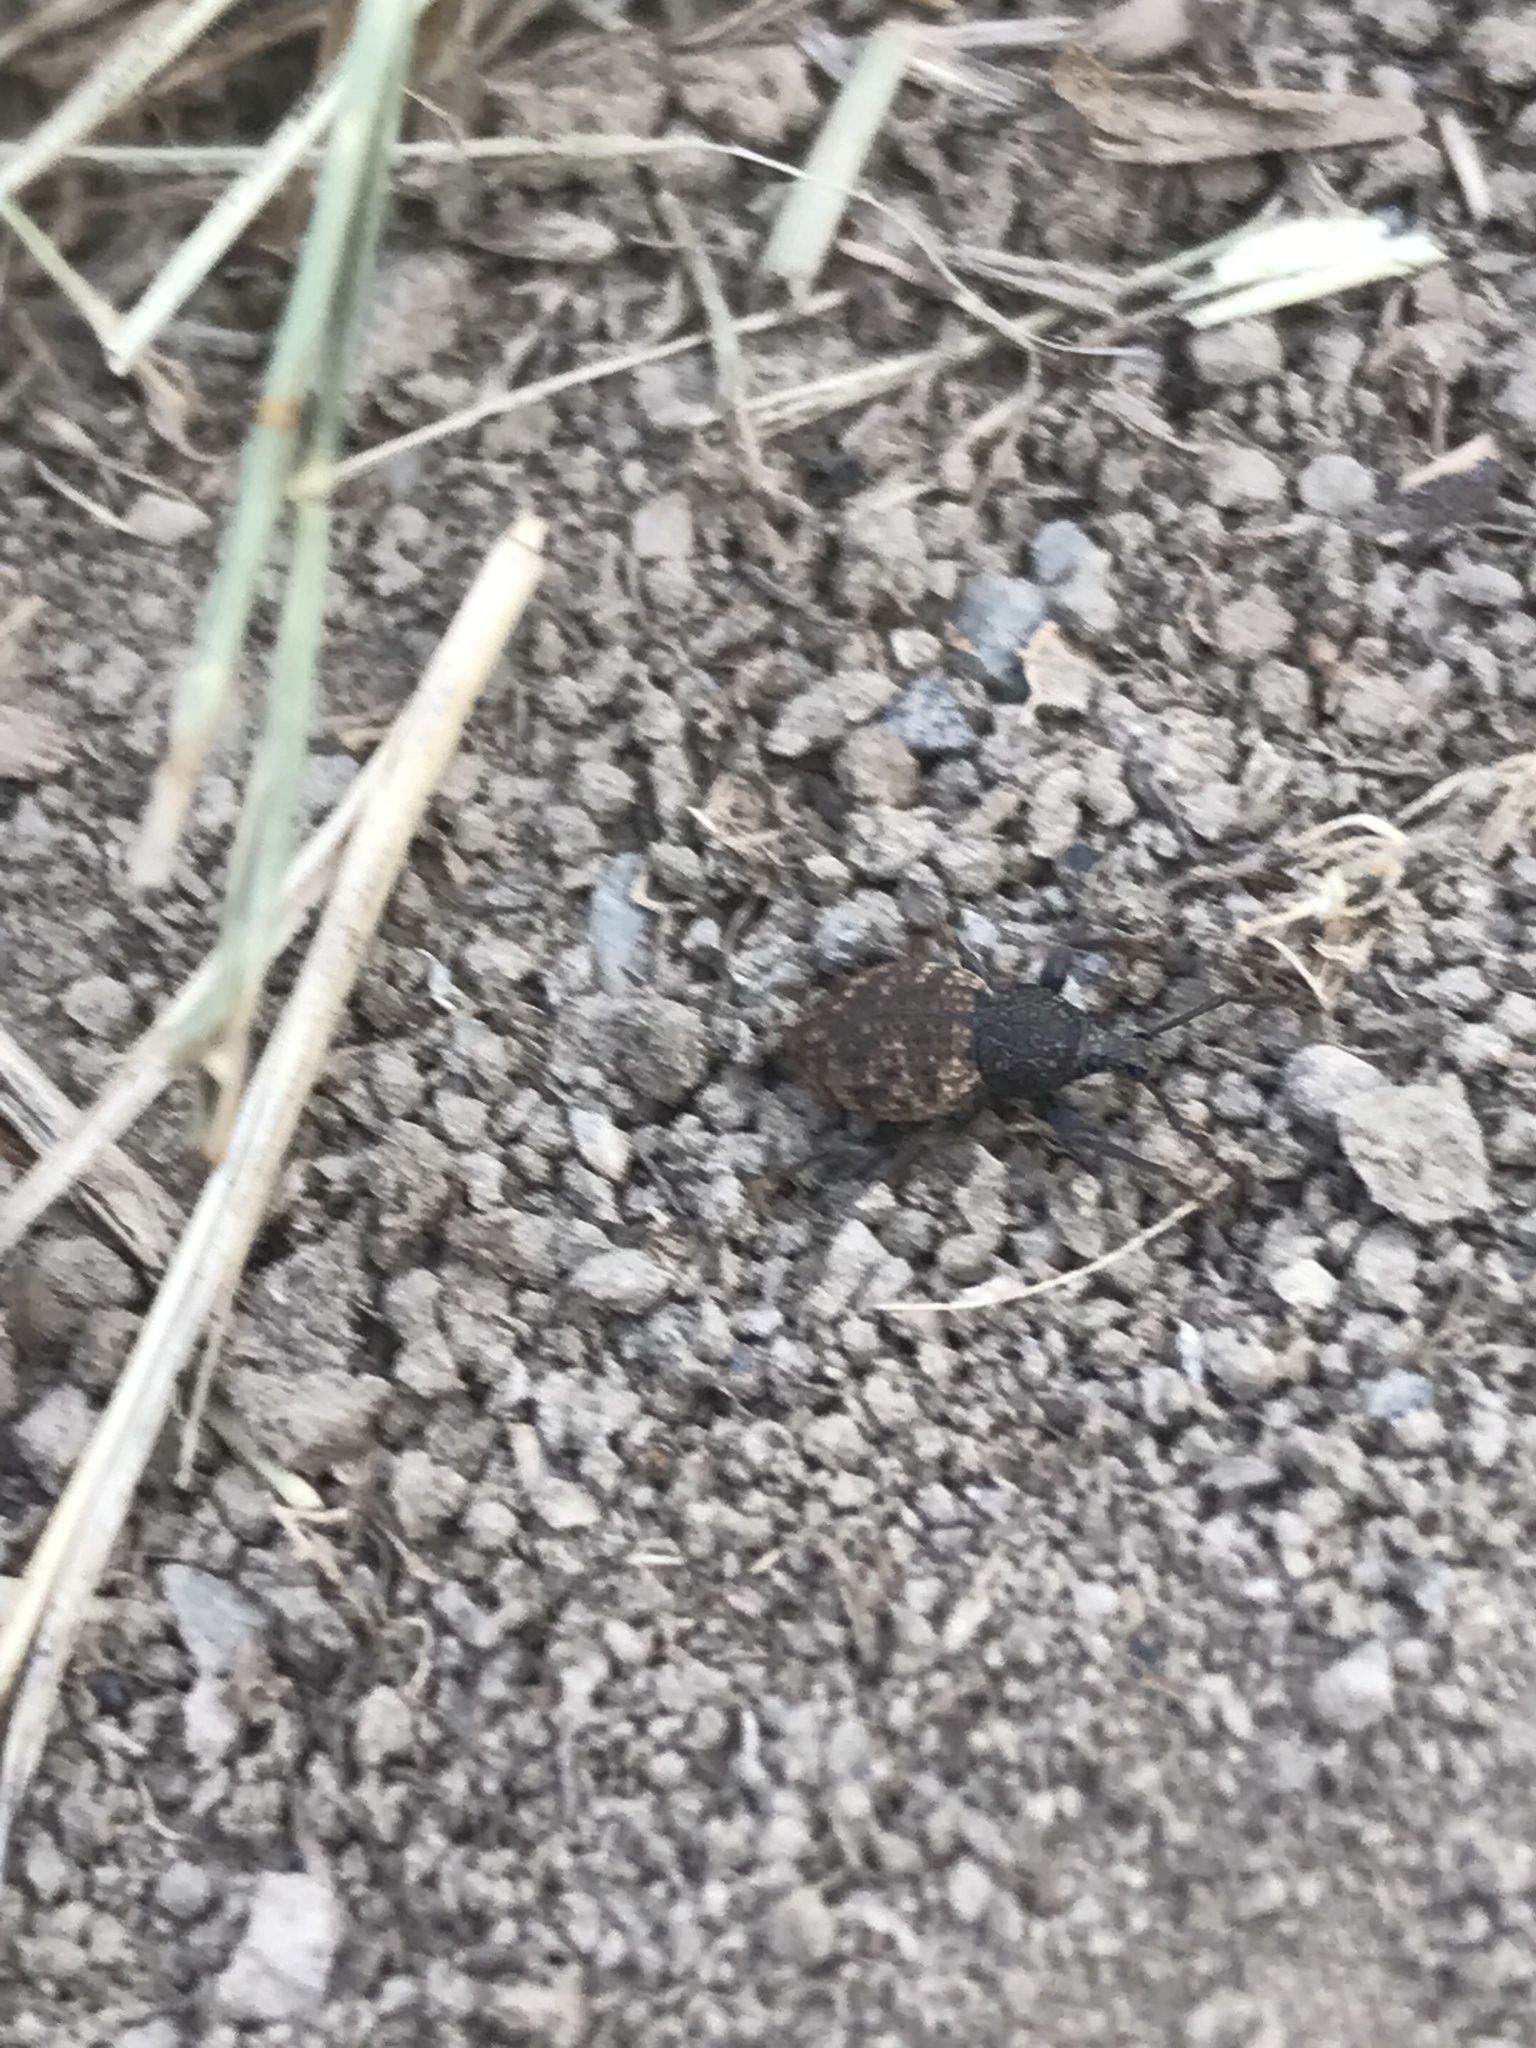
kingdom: Animalia
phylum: Arthropoda
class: Insecta
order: Coleoptera
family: Curculionidae
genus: Otiorhynchus
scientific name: Otiorhynchus raucus
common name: Weevil
